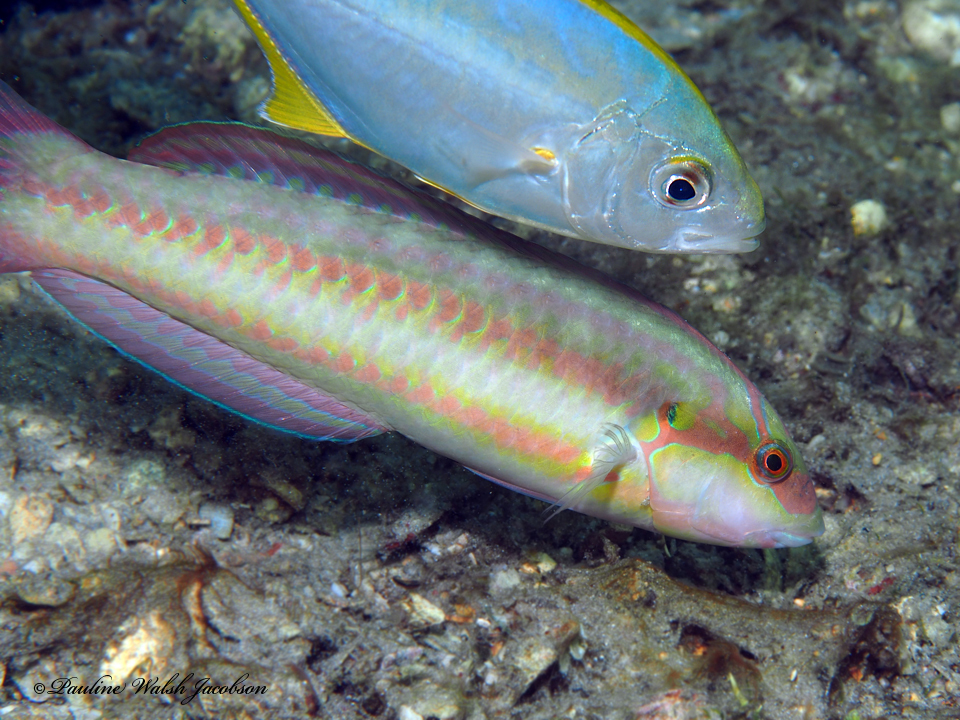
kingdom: Animalia
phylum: Chordata
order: Perciformes
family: Labridae
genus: Halichoeres
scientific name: Halichoeres bivittatus
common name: Slippery dick
